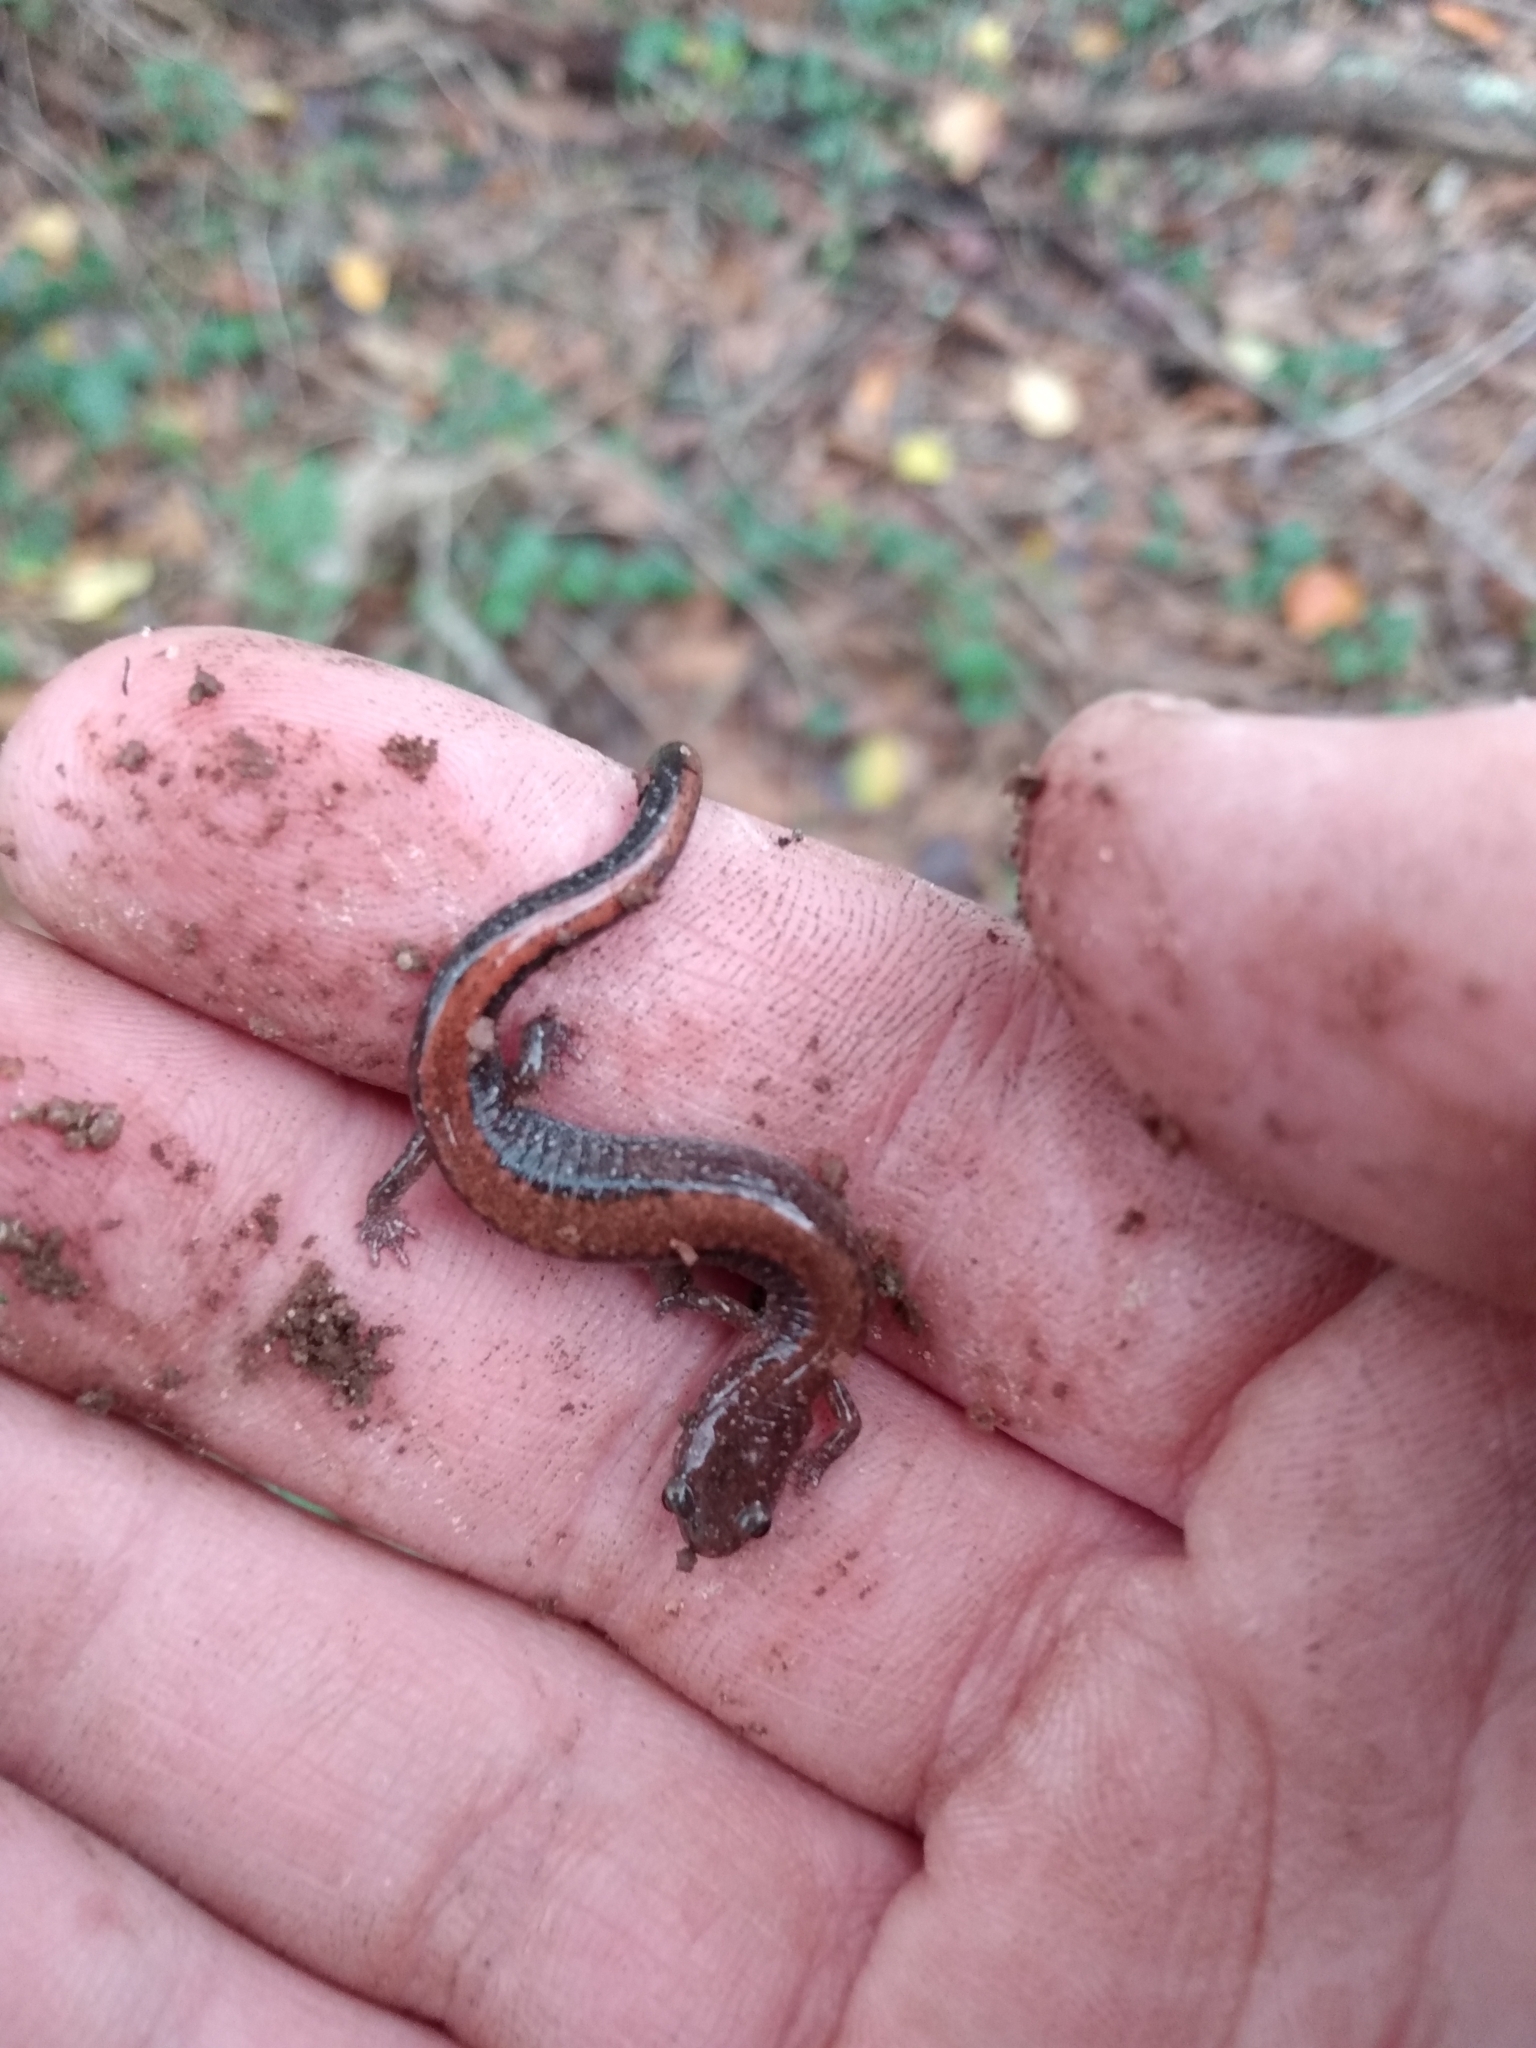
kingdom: Animalia
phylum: Chordata
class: Amphibia
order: Caudata
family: Plethodontidae
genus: Plethodon
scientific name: Plethodon serratus
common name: Southern red-backed salamander
